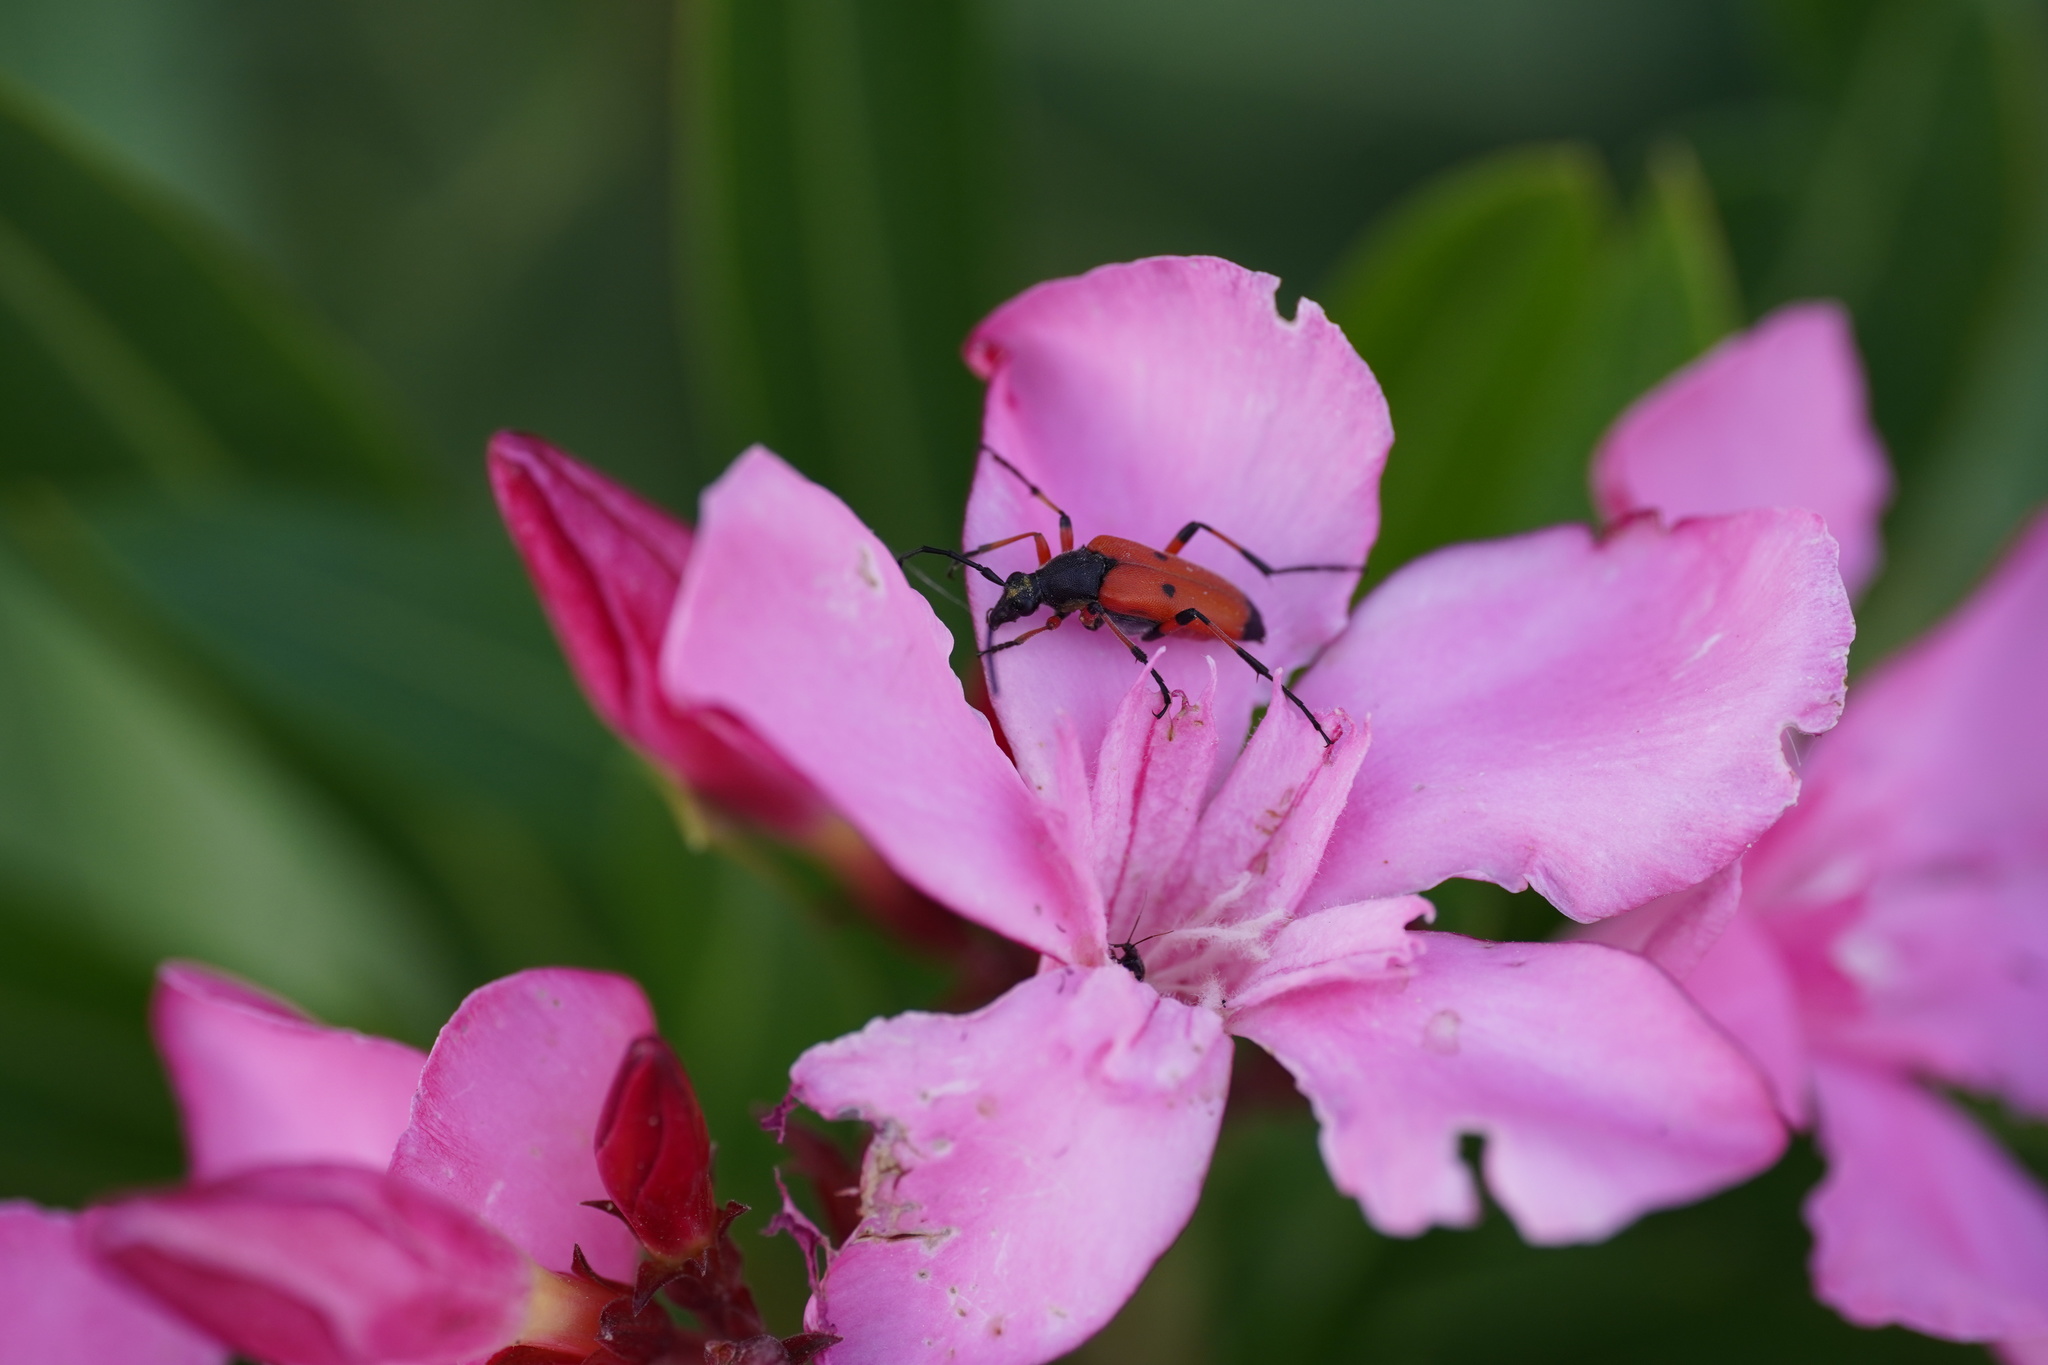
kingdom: Animalia
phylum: Arthropoda
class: Insecta
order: Coleoptera
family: Cerambycidae
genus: Nustera
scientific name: Nustera distigma
